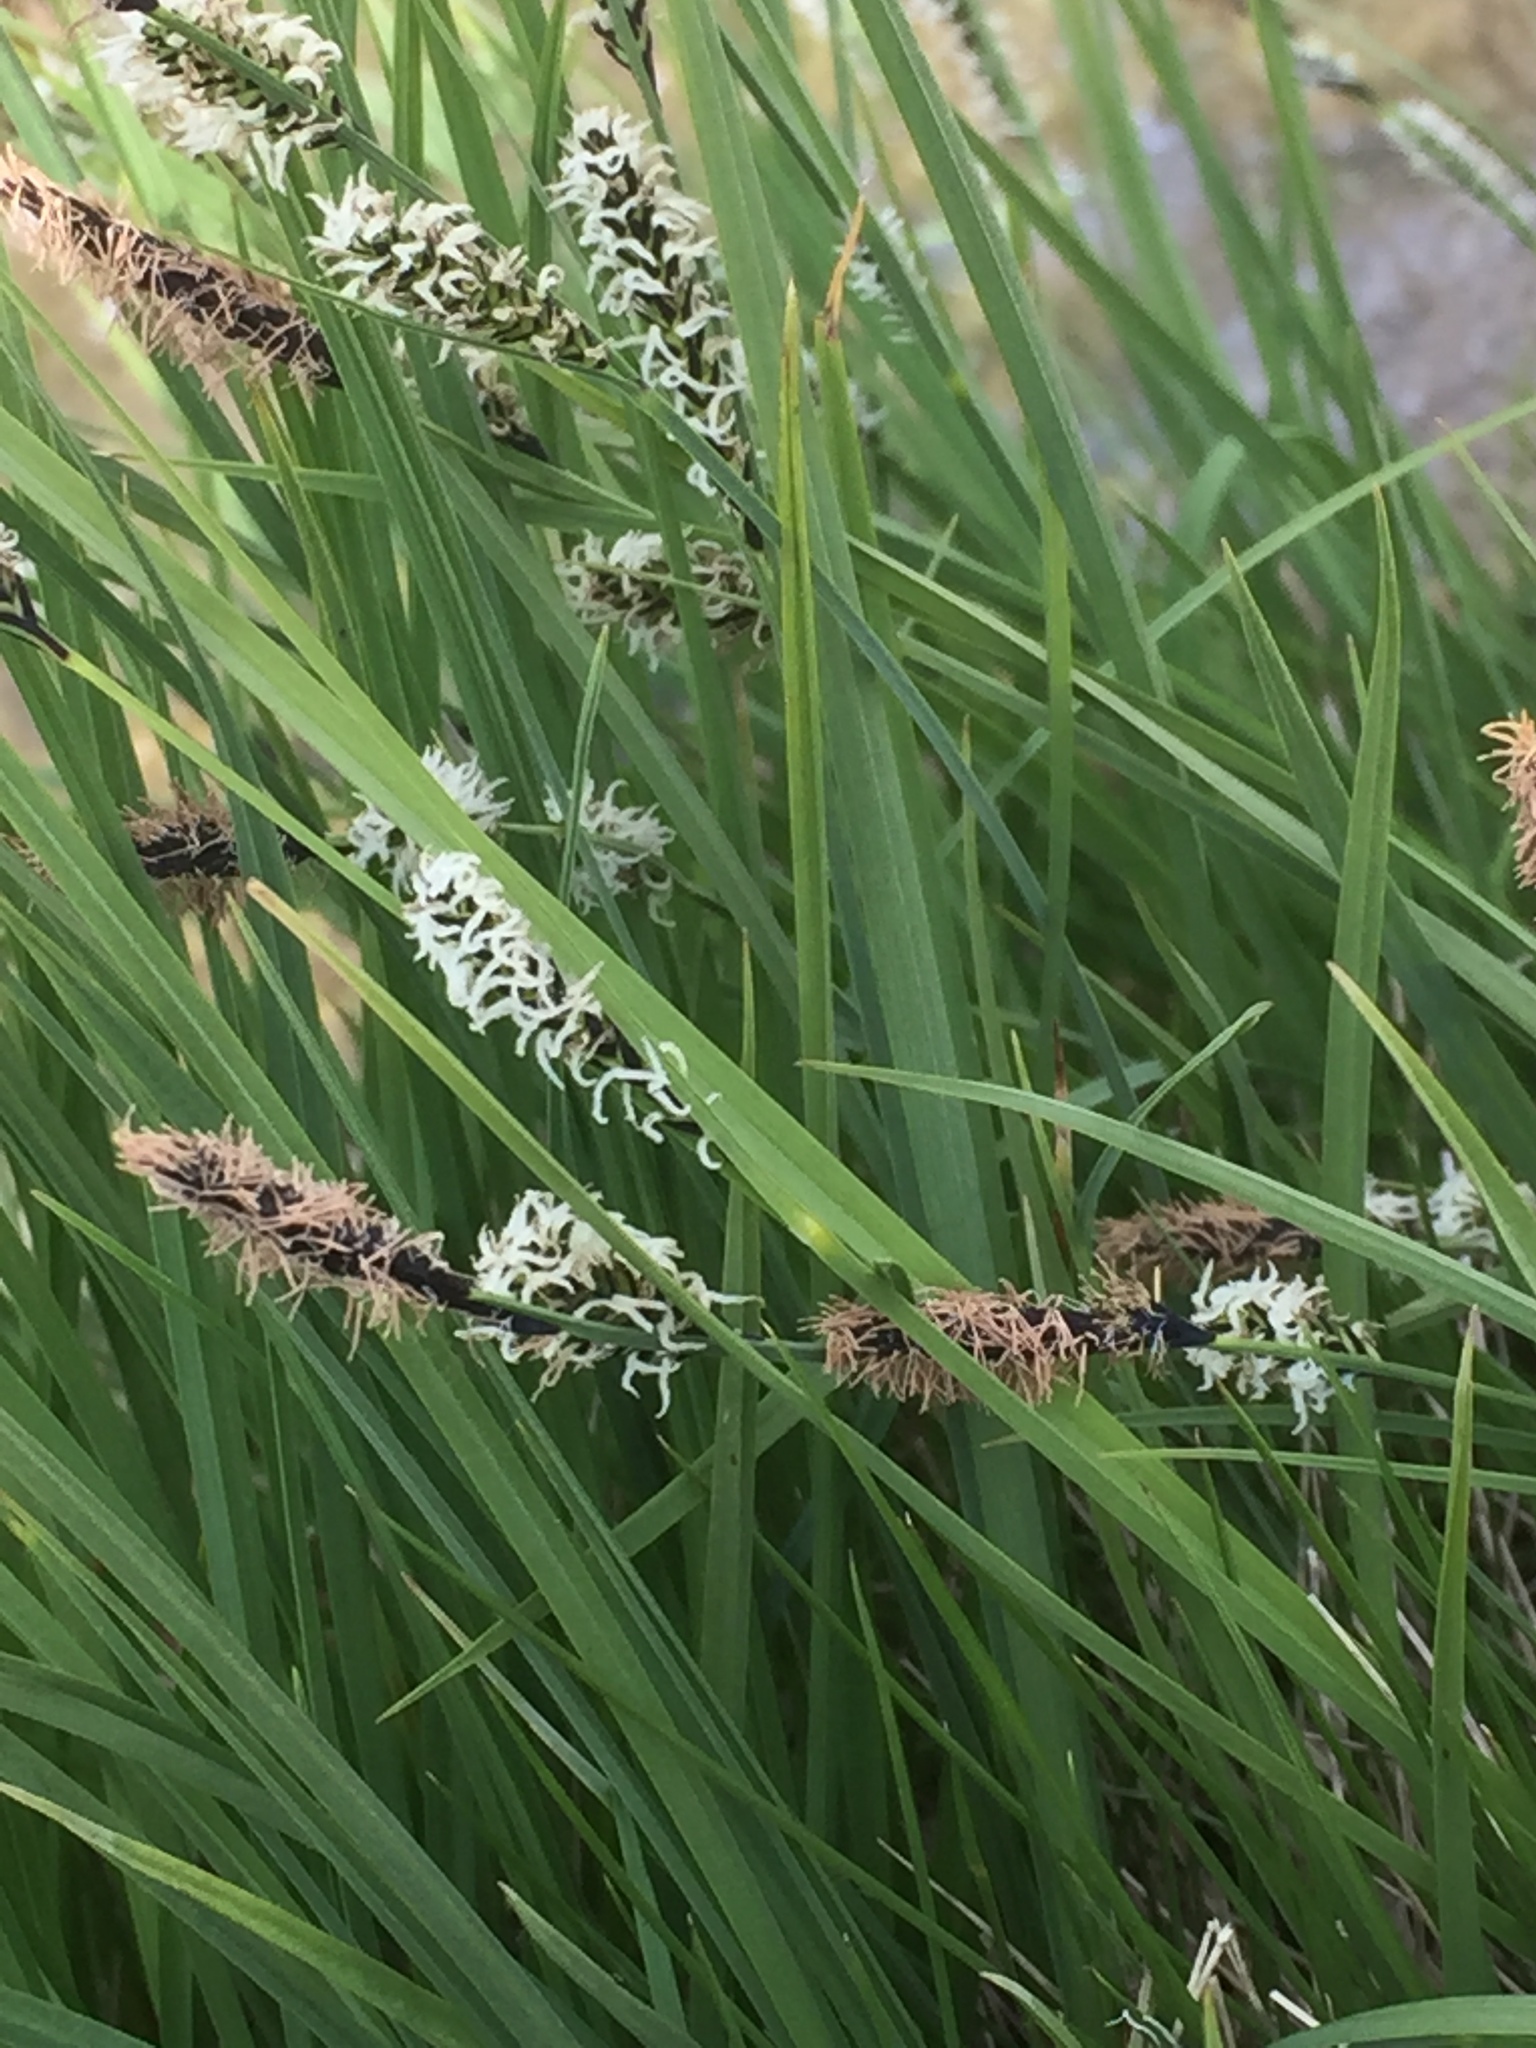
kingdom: Plantae
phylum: Tracheophyta
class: Liliopsida
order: Poales
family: Cyperaceae
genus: Carex
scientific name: Carex nigra
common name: Common sedge
